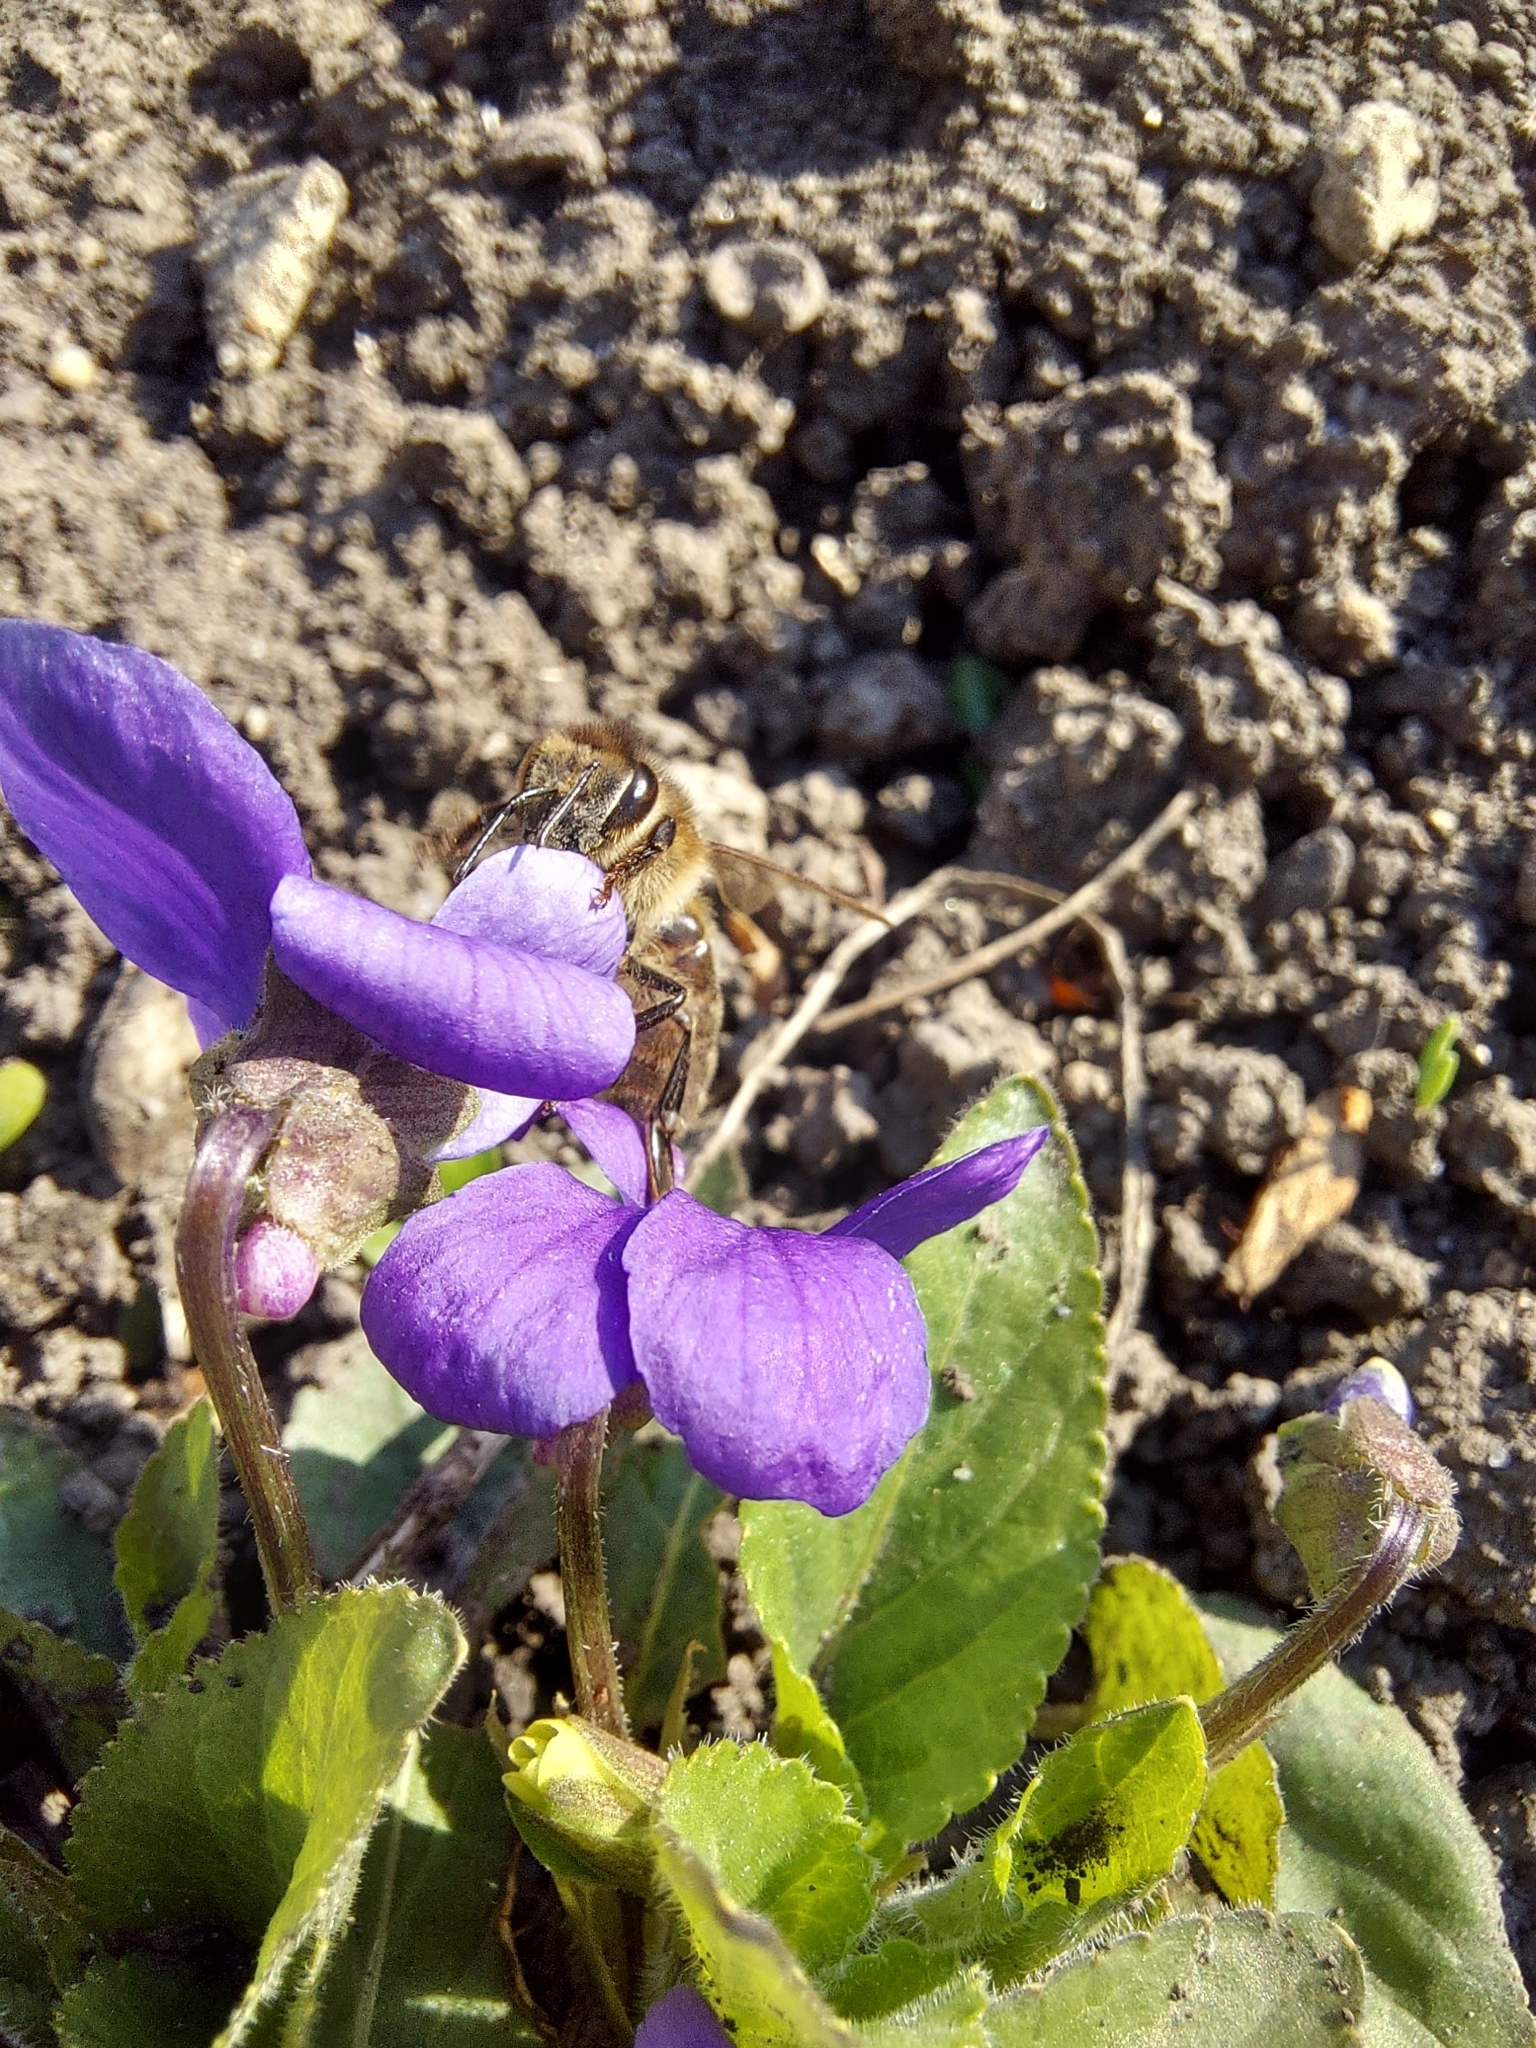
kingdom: Animalia
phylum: Arthropoda
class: Insecta
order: Hymenoptera
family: Apidae
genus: Apis
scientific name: Apis mellifera
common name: Honey bee
